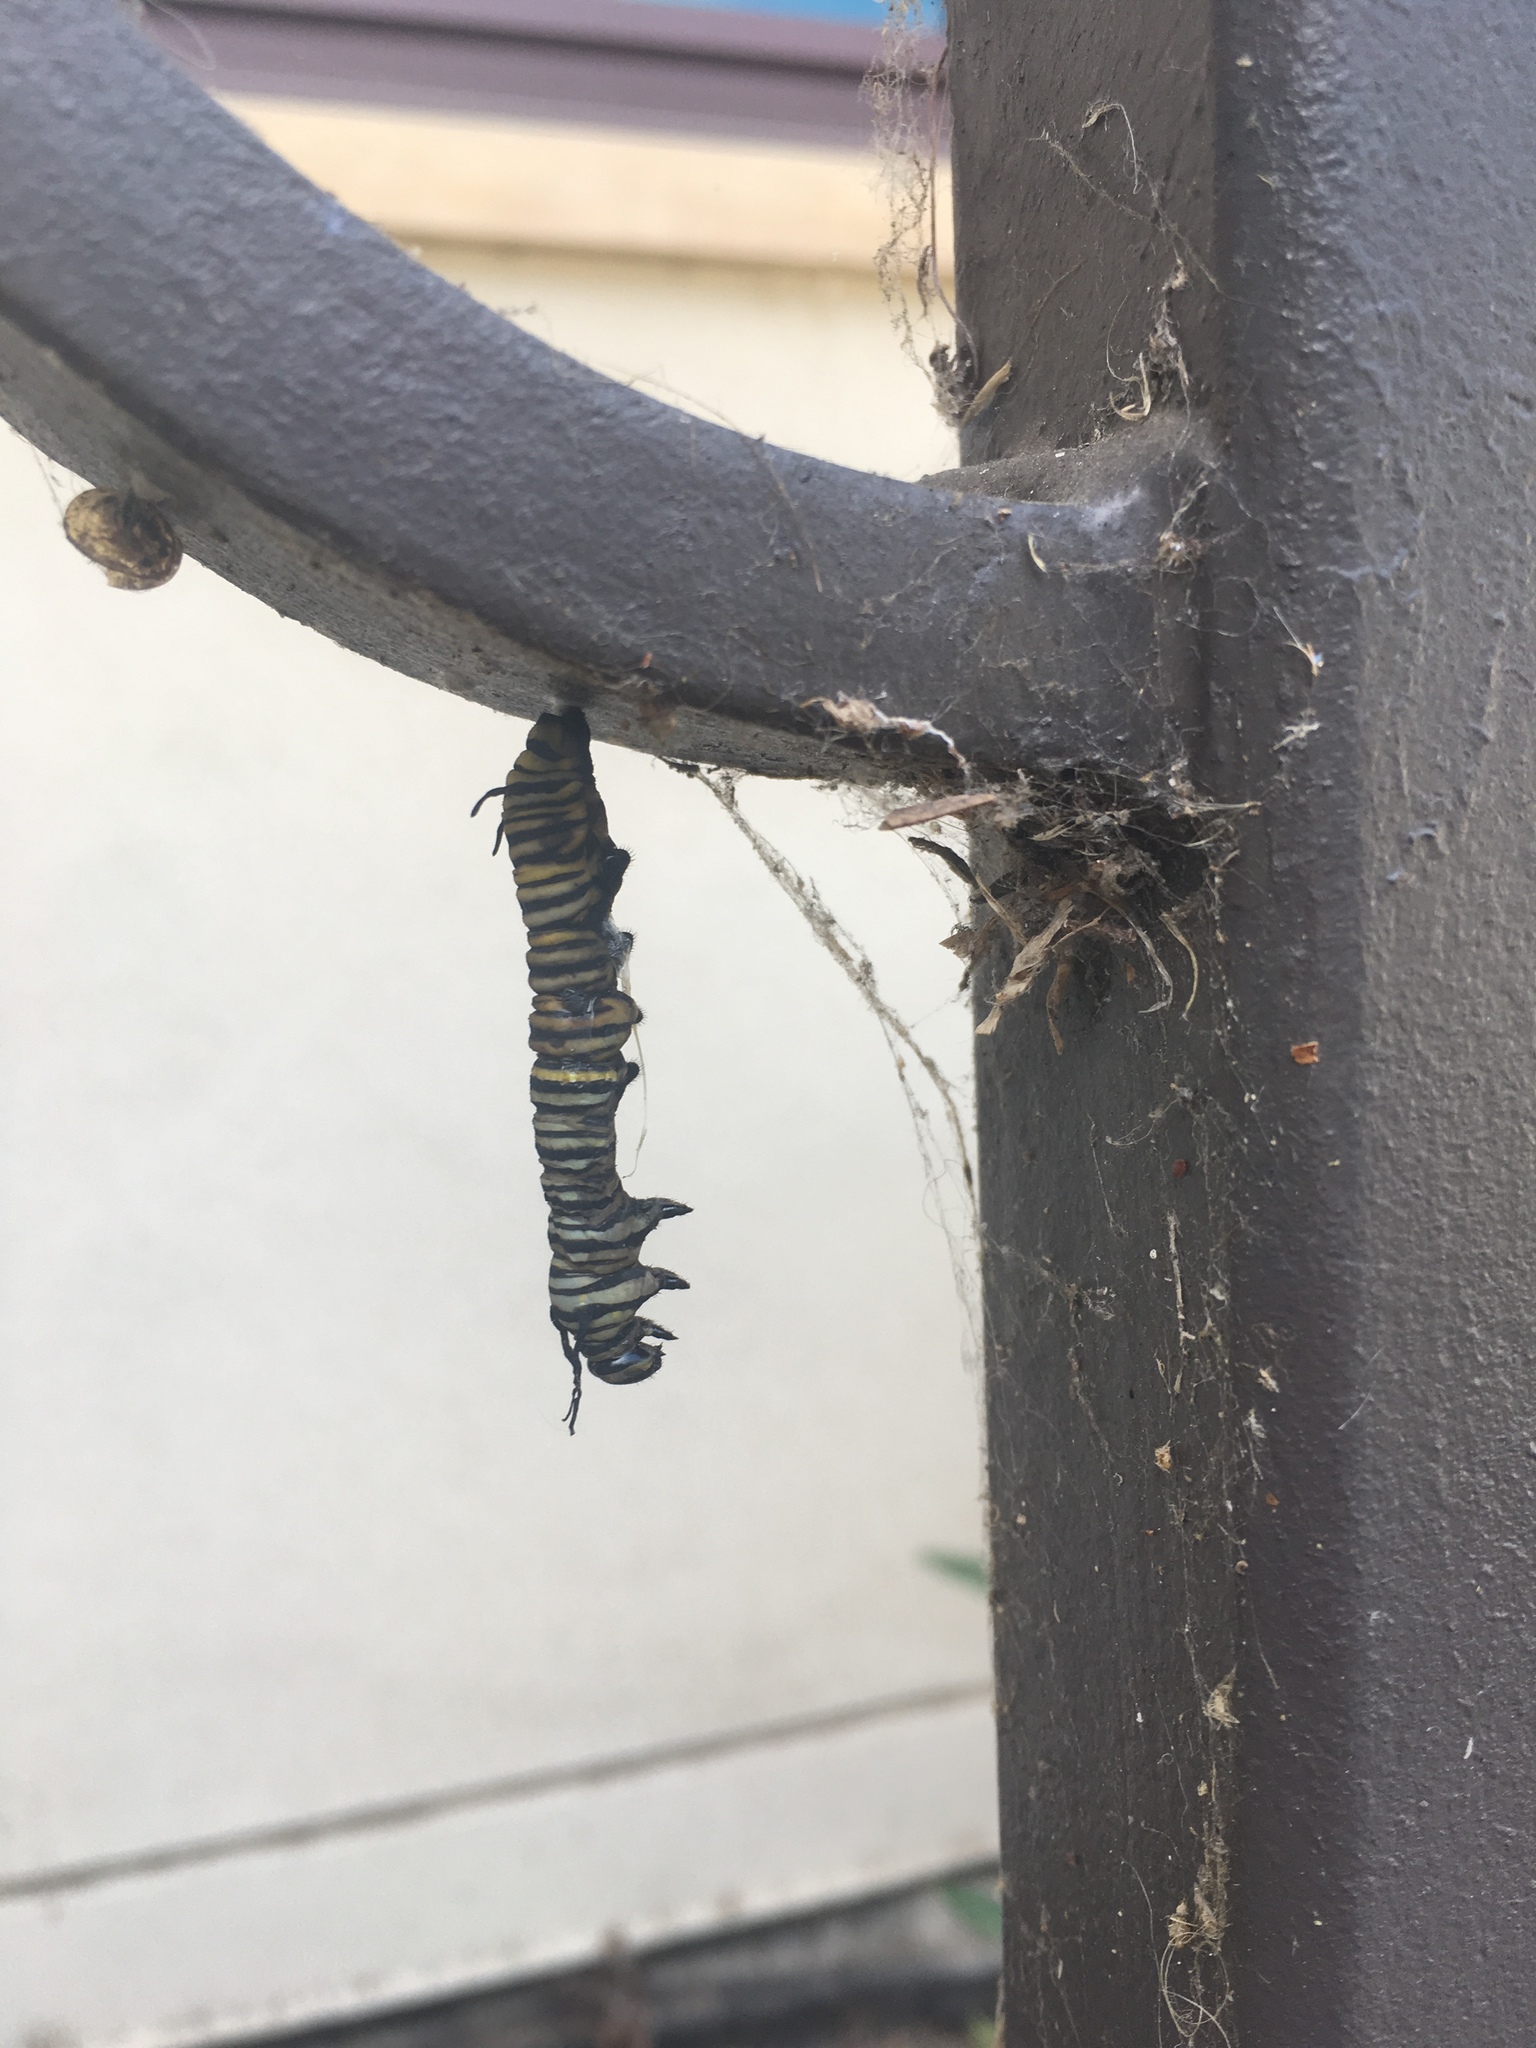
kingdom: Animalia
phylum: Arthropoda
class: Insecta
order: Lepidoptera
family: Nymphalidae
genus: Danaus
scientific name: Danaus plexippus
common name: Monarch
